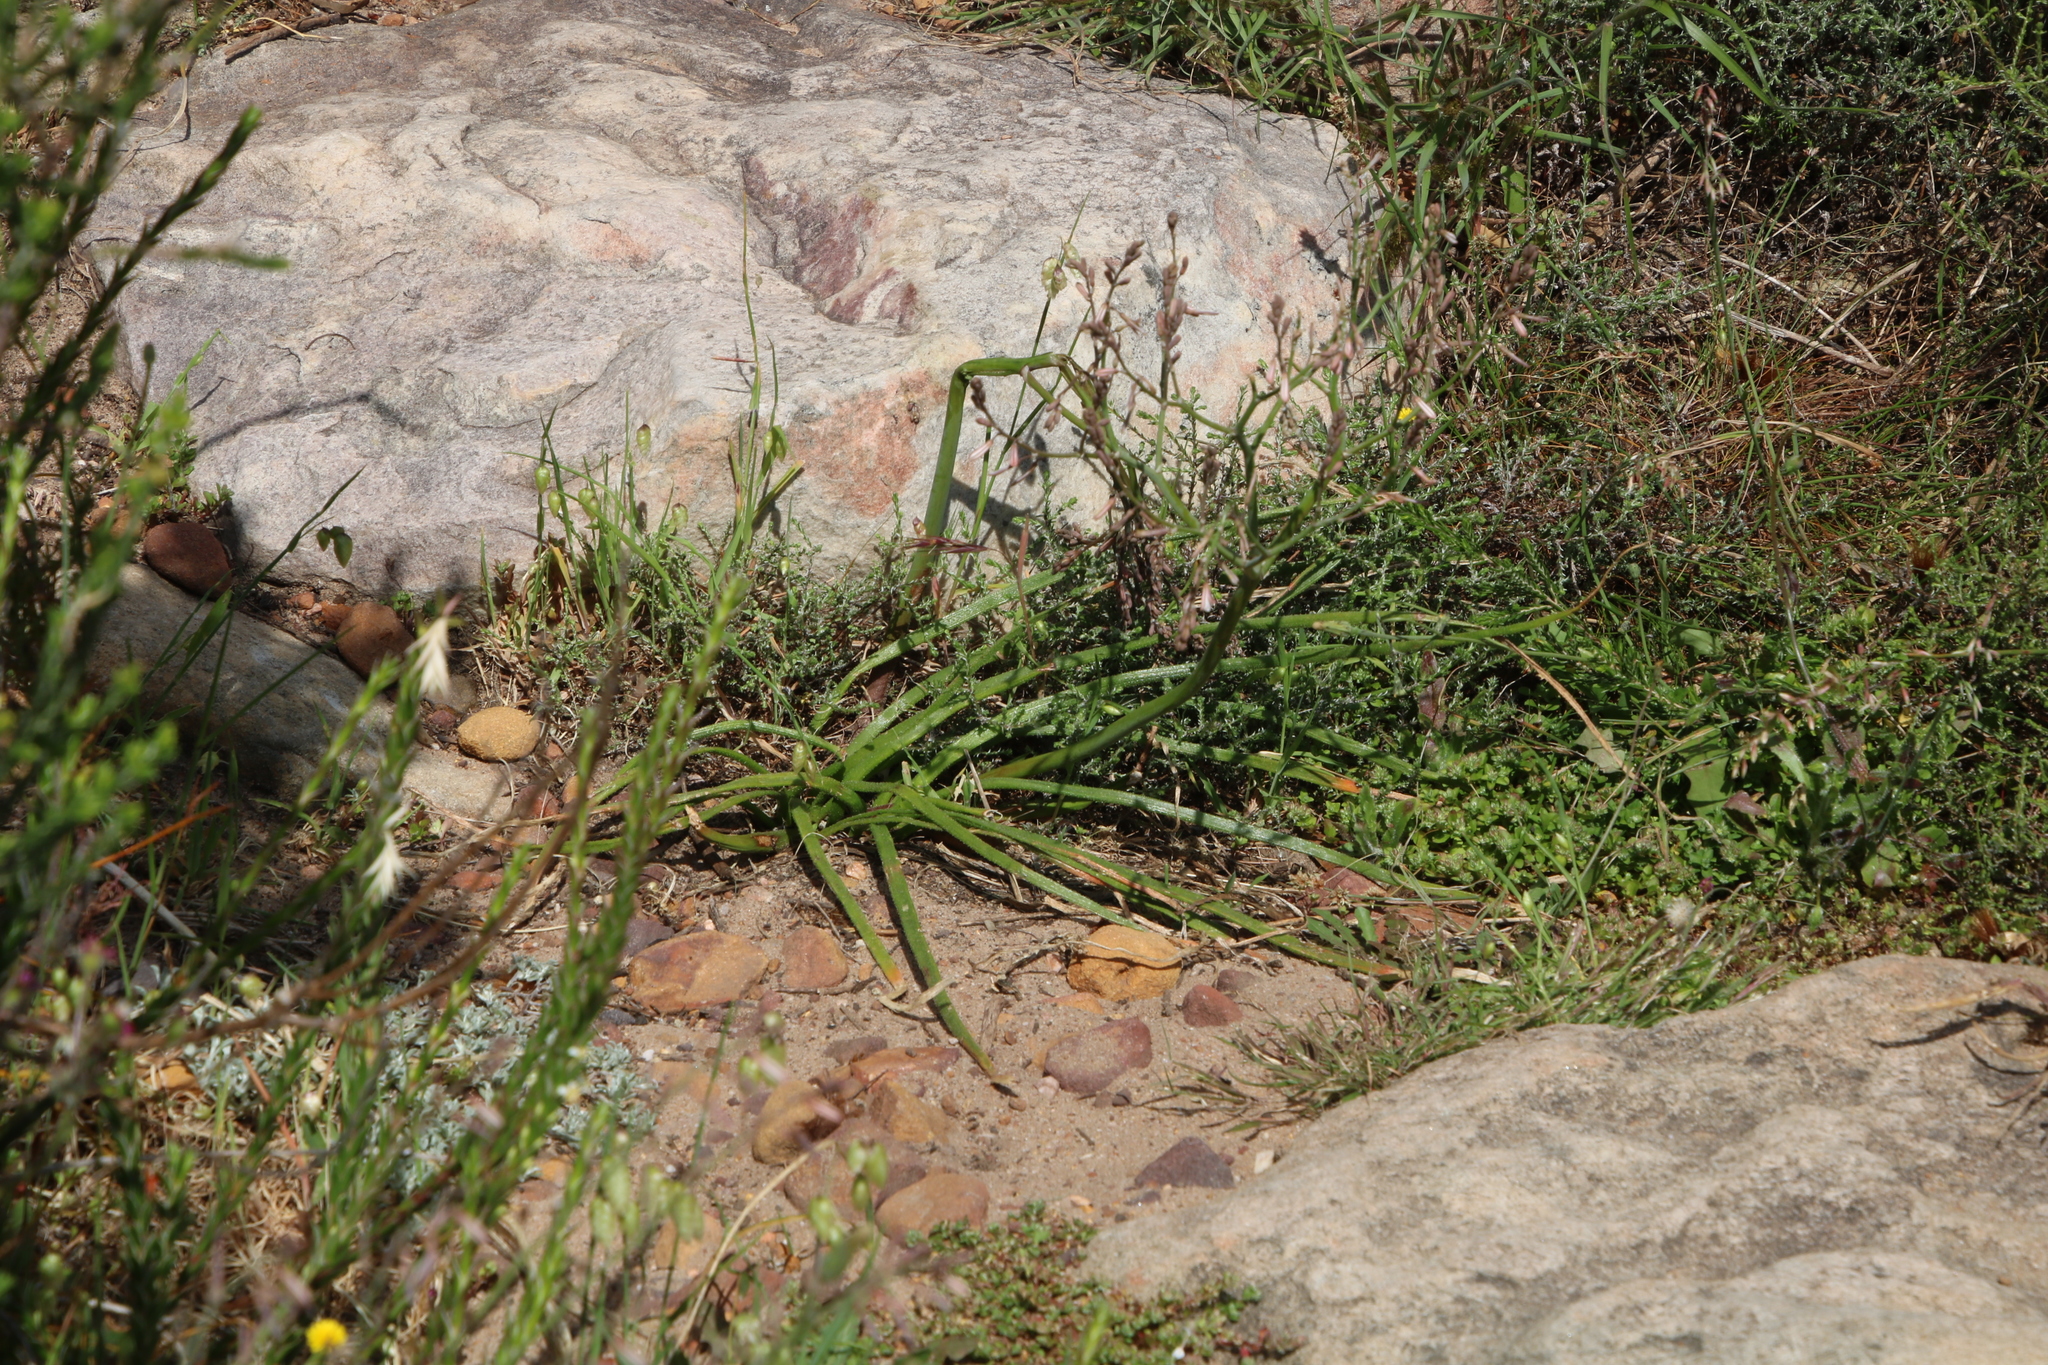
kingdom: Plantae
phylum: Tracheophyta
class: Liliopsida
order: Asparagales
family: Asphodelaceae
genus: Trachyandra
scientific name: Trachyandra divaricata
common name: Dune onionweed
